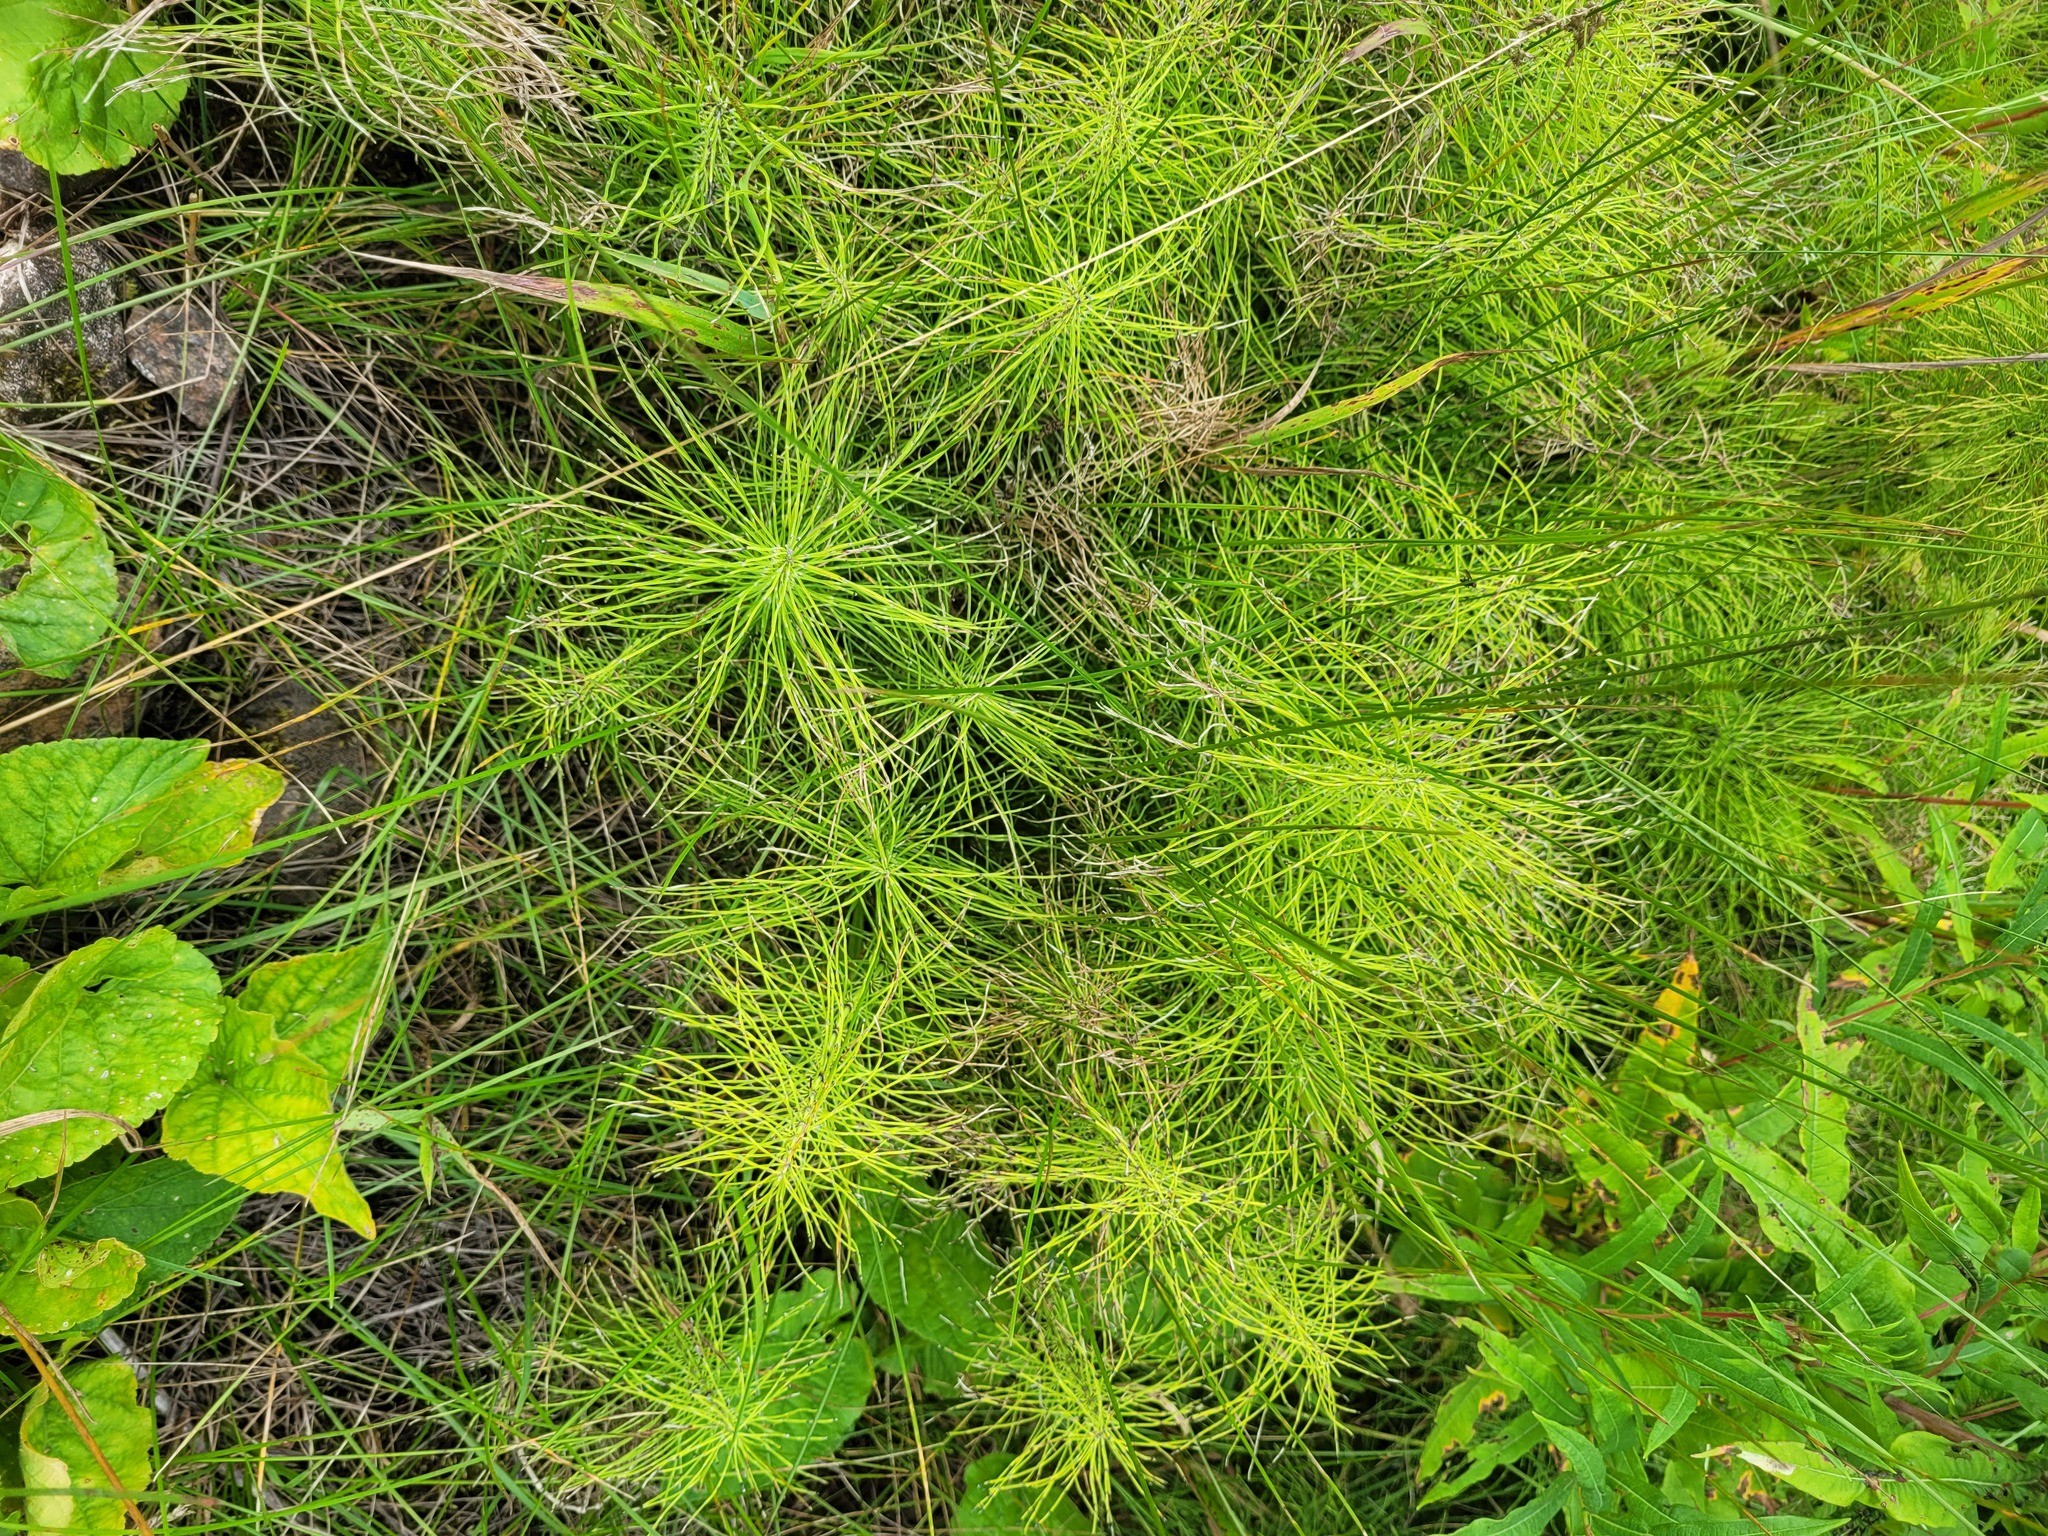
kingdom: Plantae
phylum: Tracheophyta
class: Polypodiopsida
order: Equisetales
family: Equisetaceae
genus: Equisetum
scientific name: Equisetum pratense
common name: Meadow horsetail
